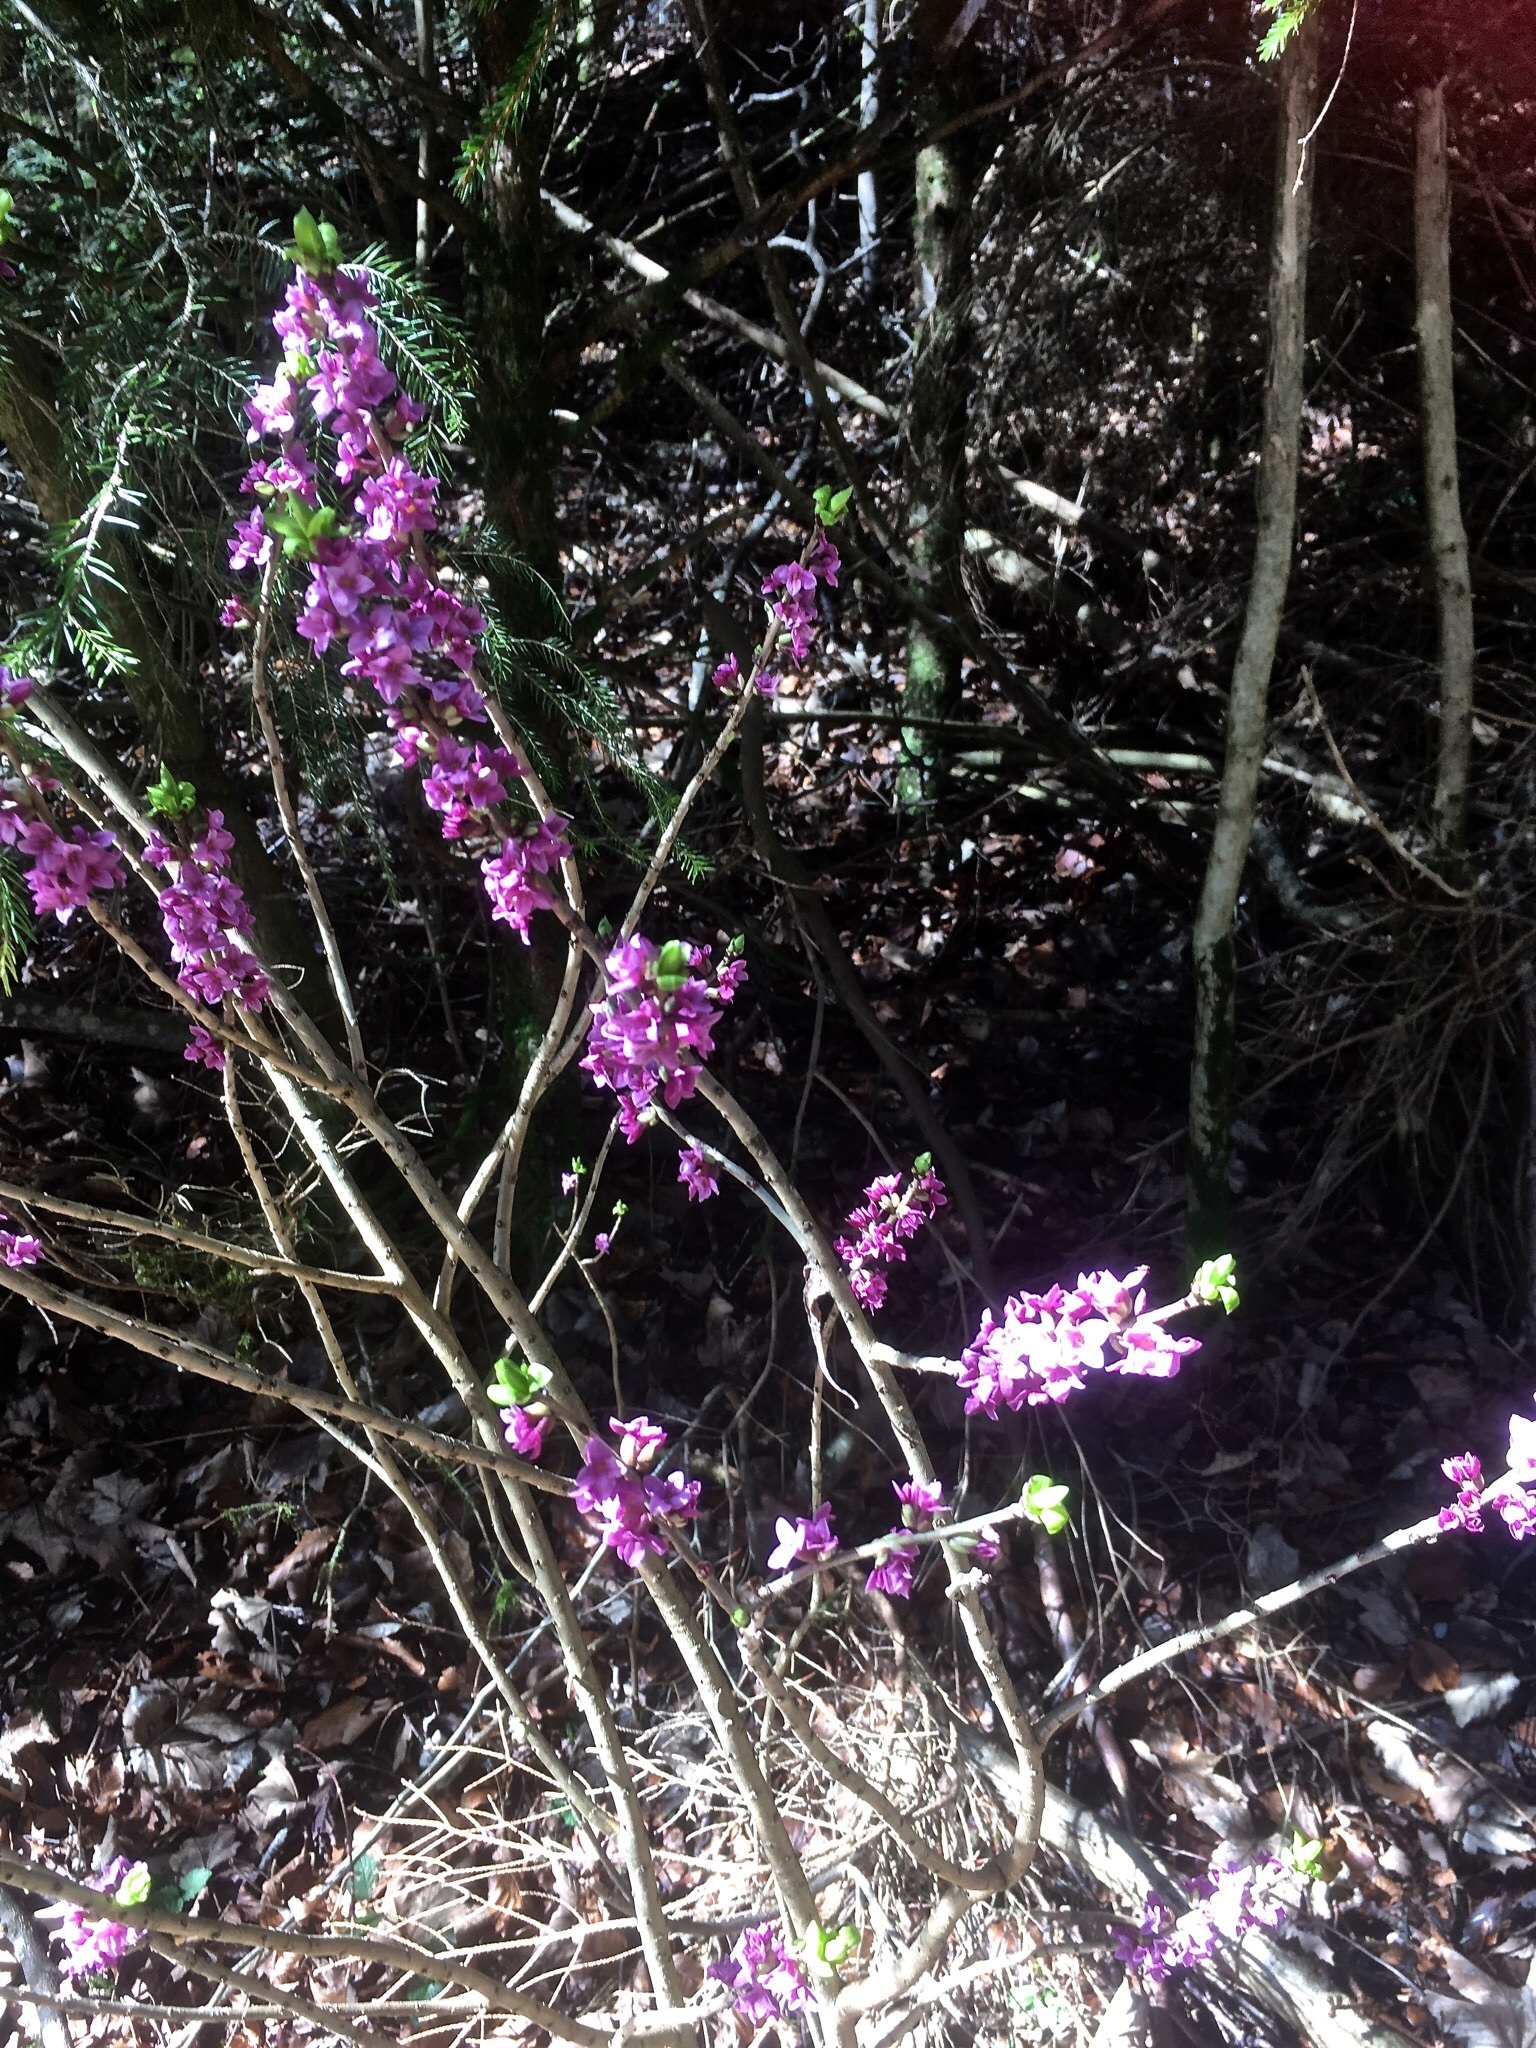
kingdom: Plantae
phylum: Tracheophyta
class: Magnoliopsida
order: Malvales
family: Thymelaeaceae
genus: Daphne
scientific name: Daphne mezereum
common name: Mezereon
